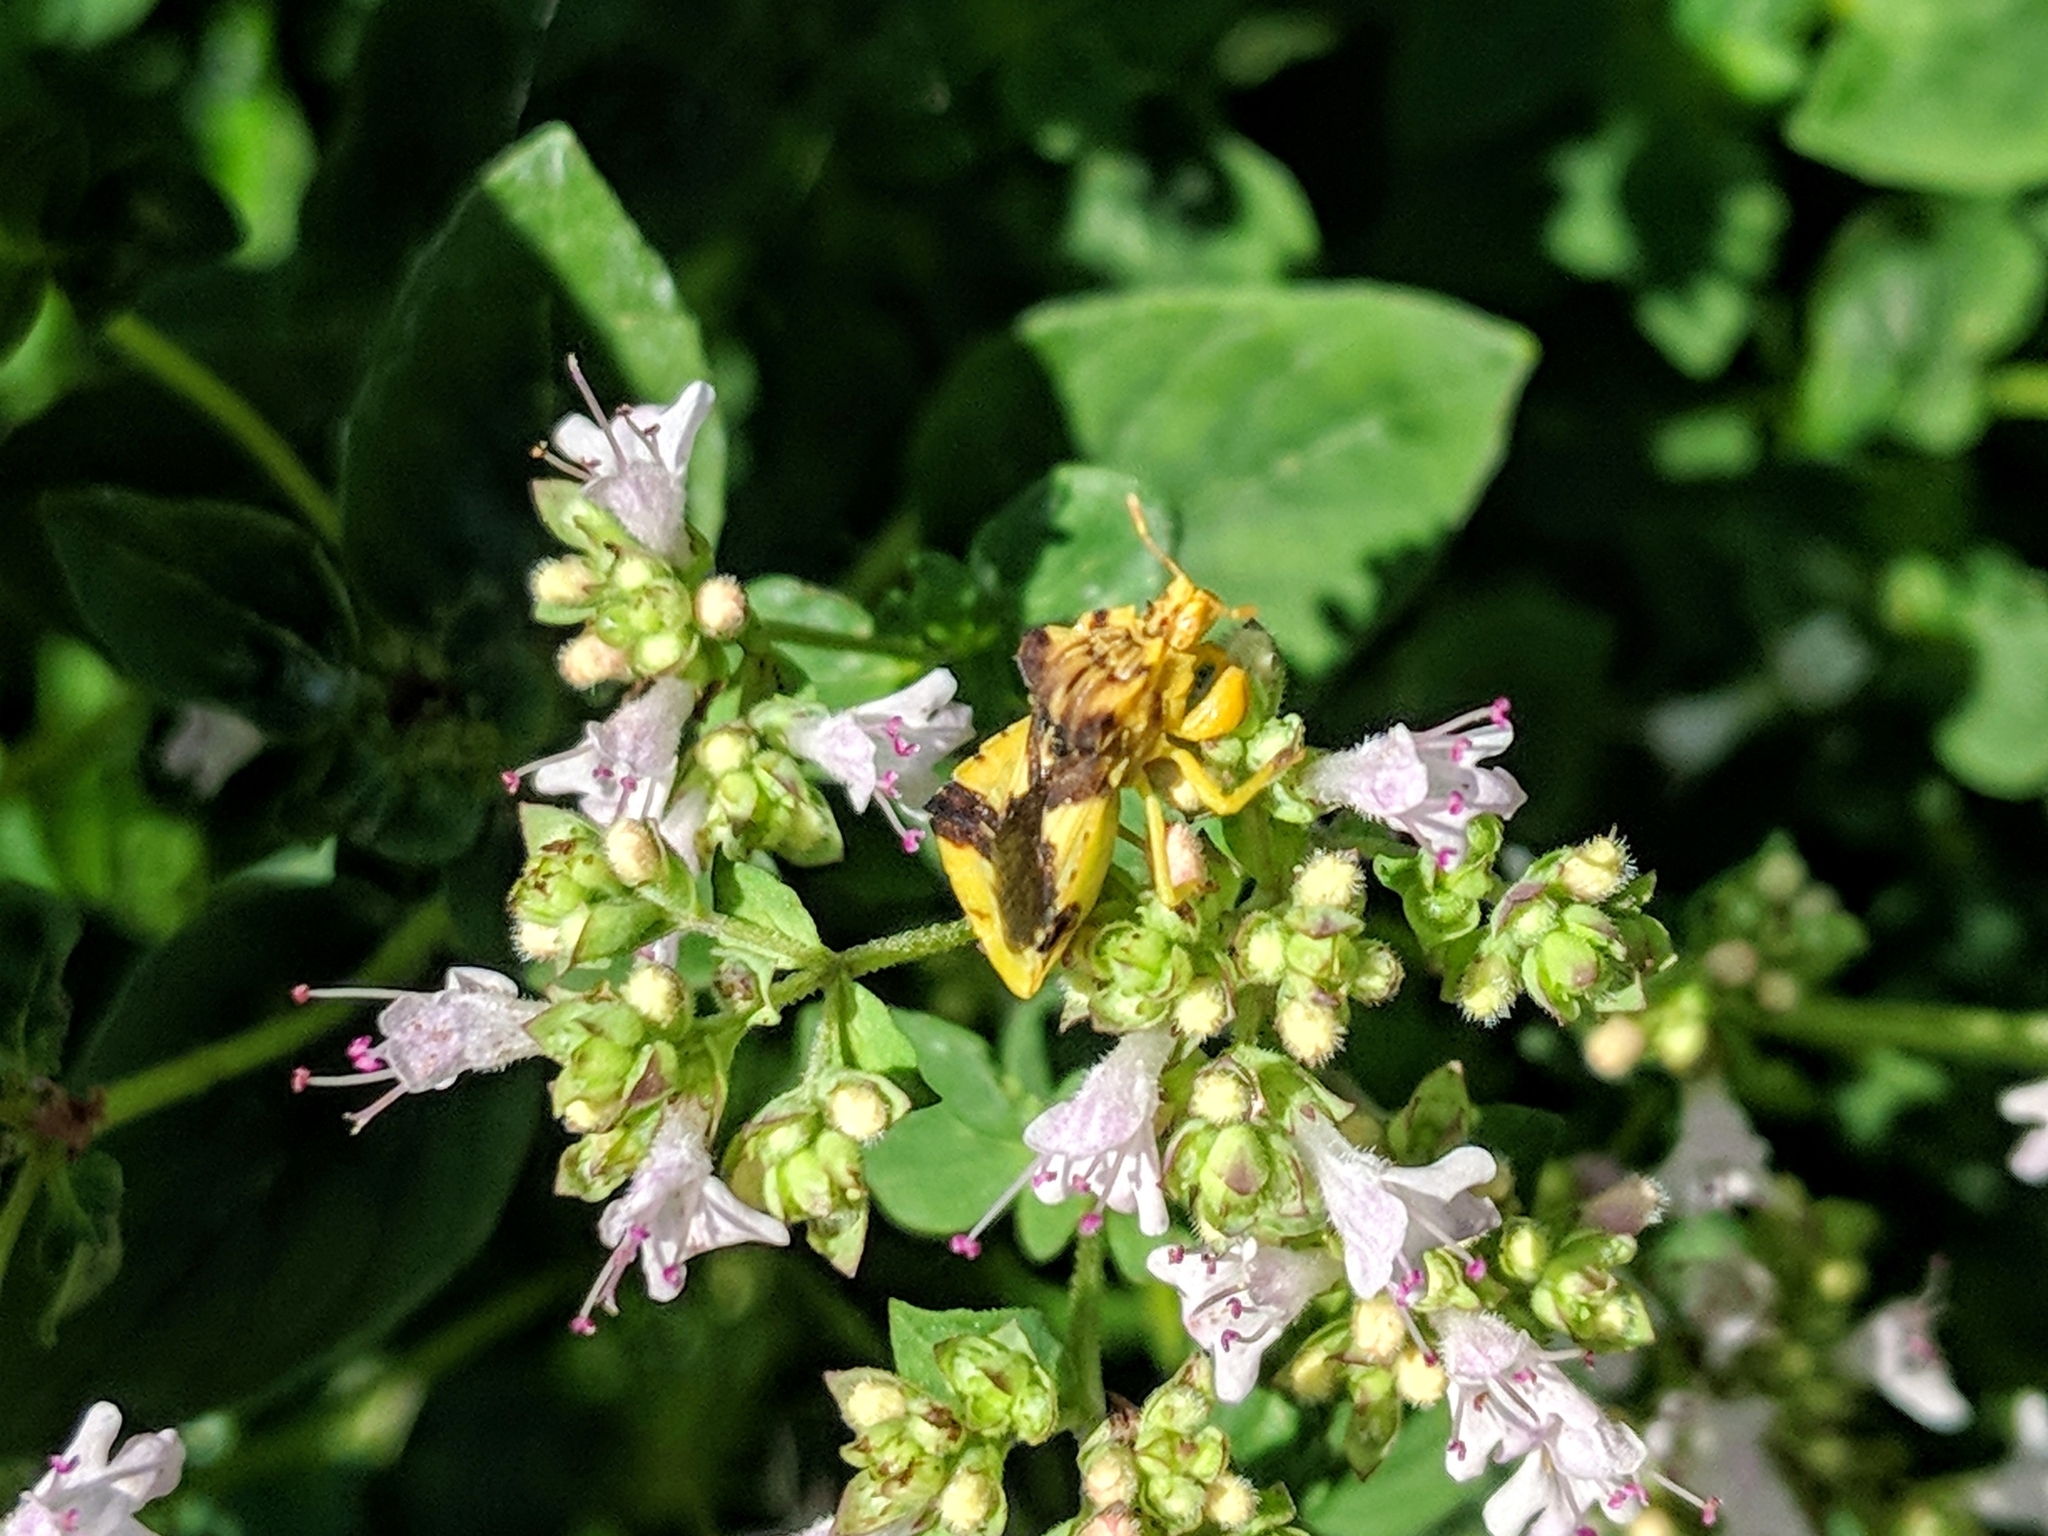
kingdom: Animalia
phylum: Arthropoda
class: Insecta
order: Hemiptera
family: Reduviidae
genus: Phymata
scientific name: Phymata americana
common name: Jagged ambush bug
